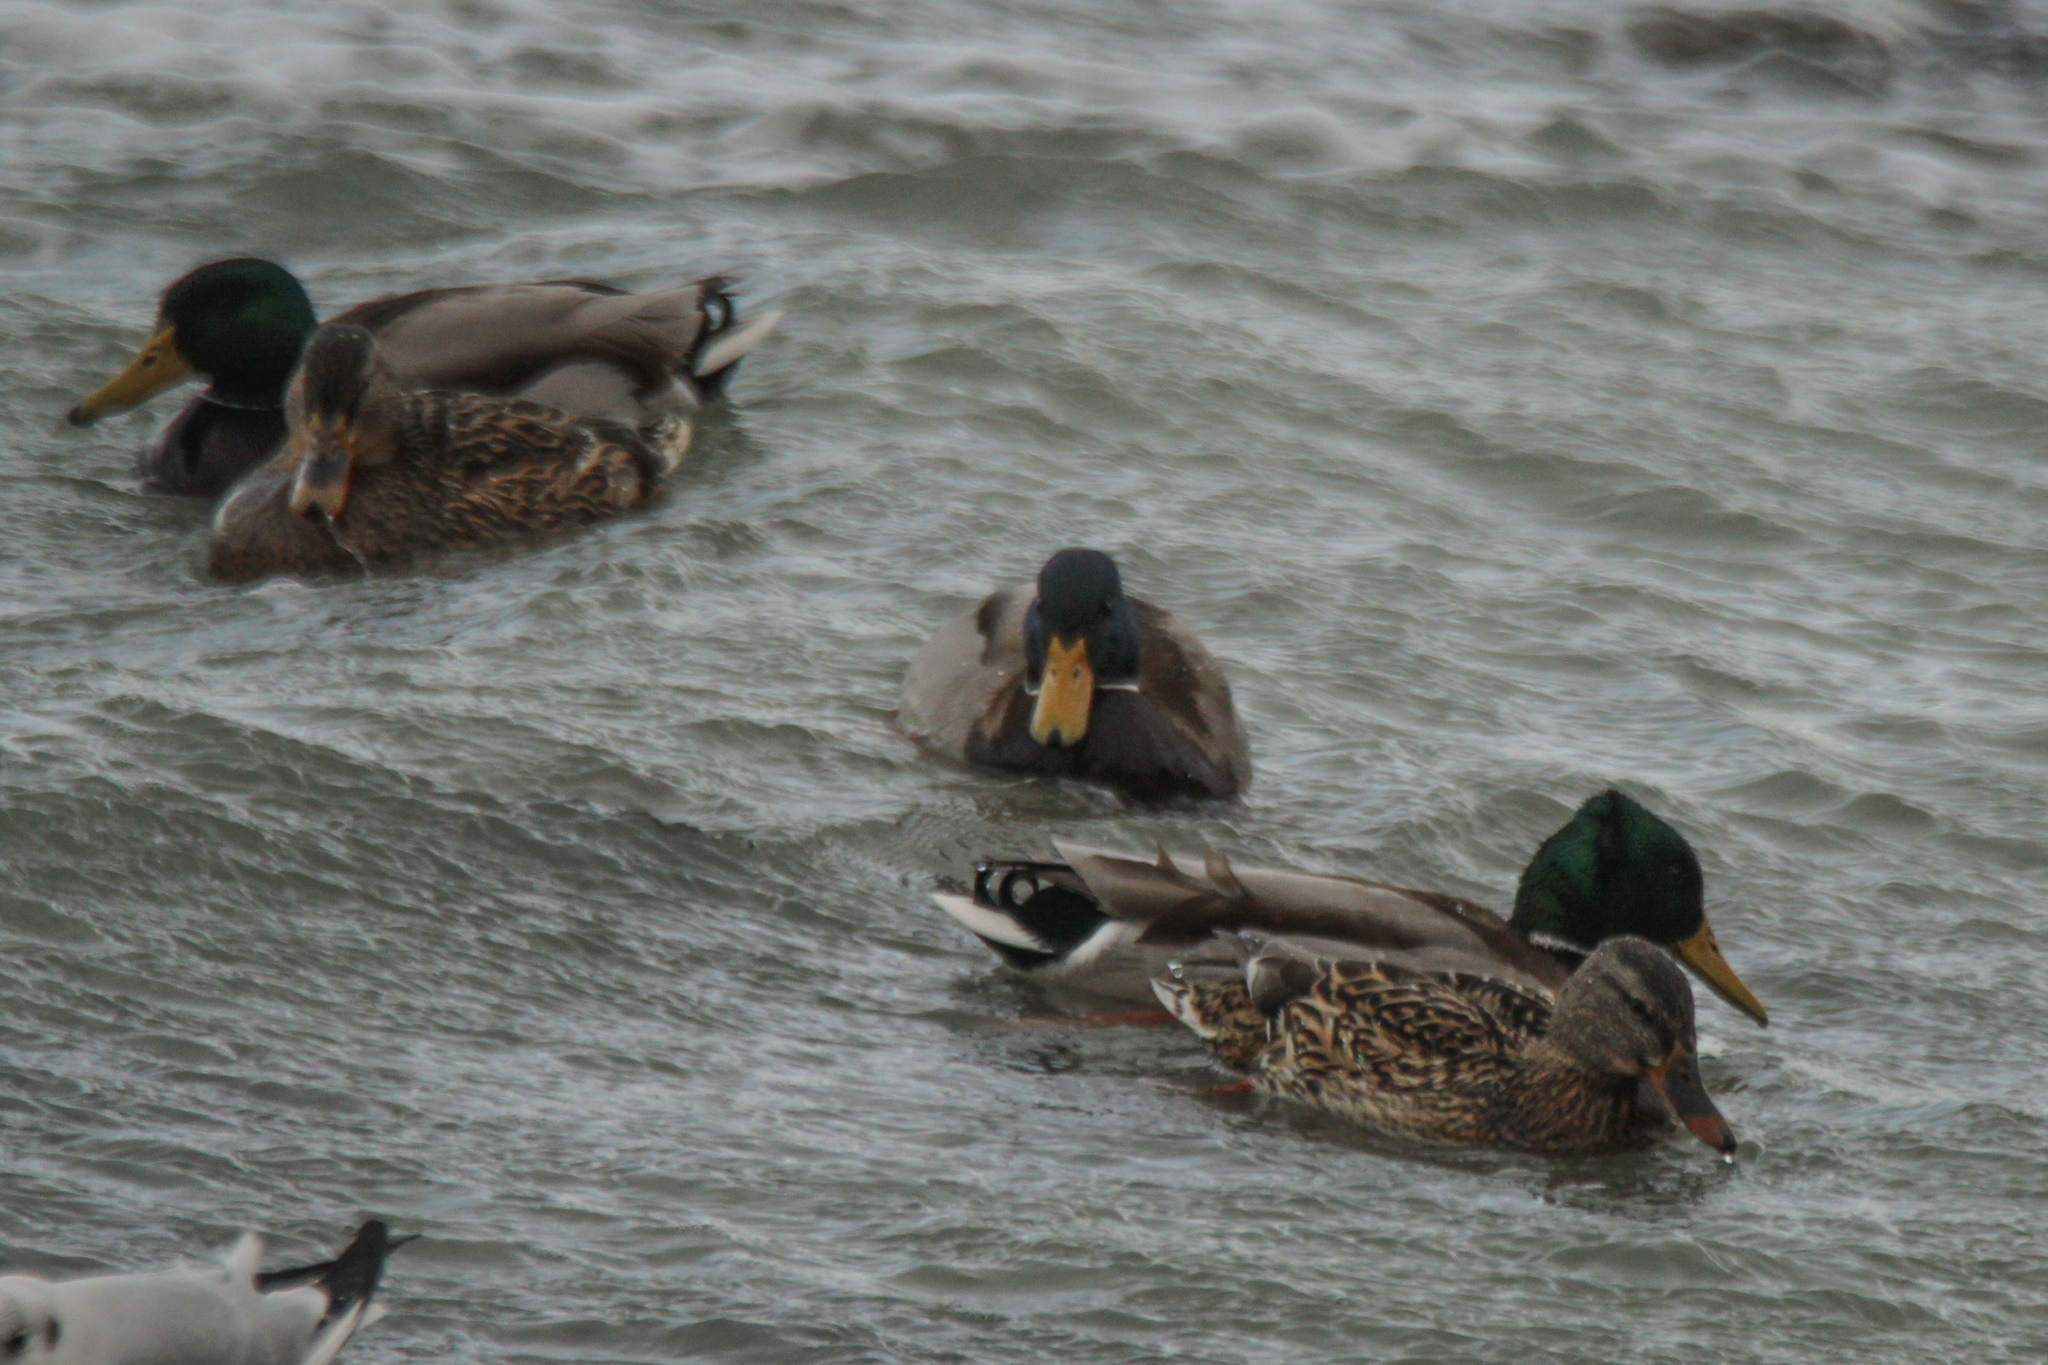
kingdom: Animalia
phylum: Chordata
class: Aves
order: Anseriformes
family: Anatidae
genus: Anas
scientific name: Anas platyrhynchos
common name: Mallard
